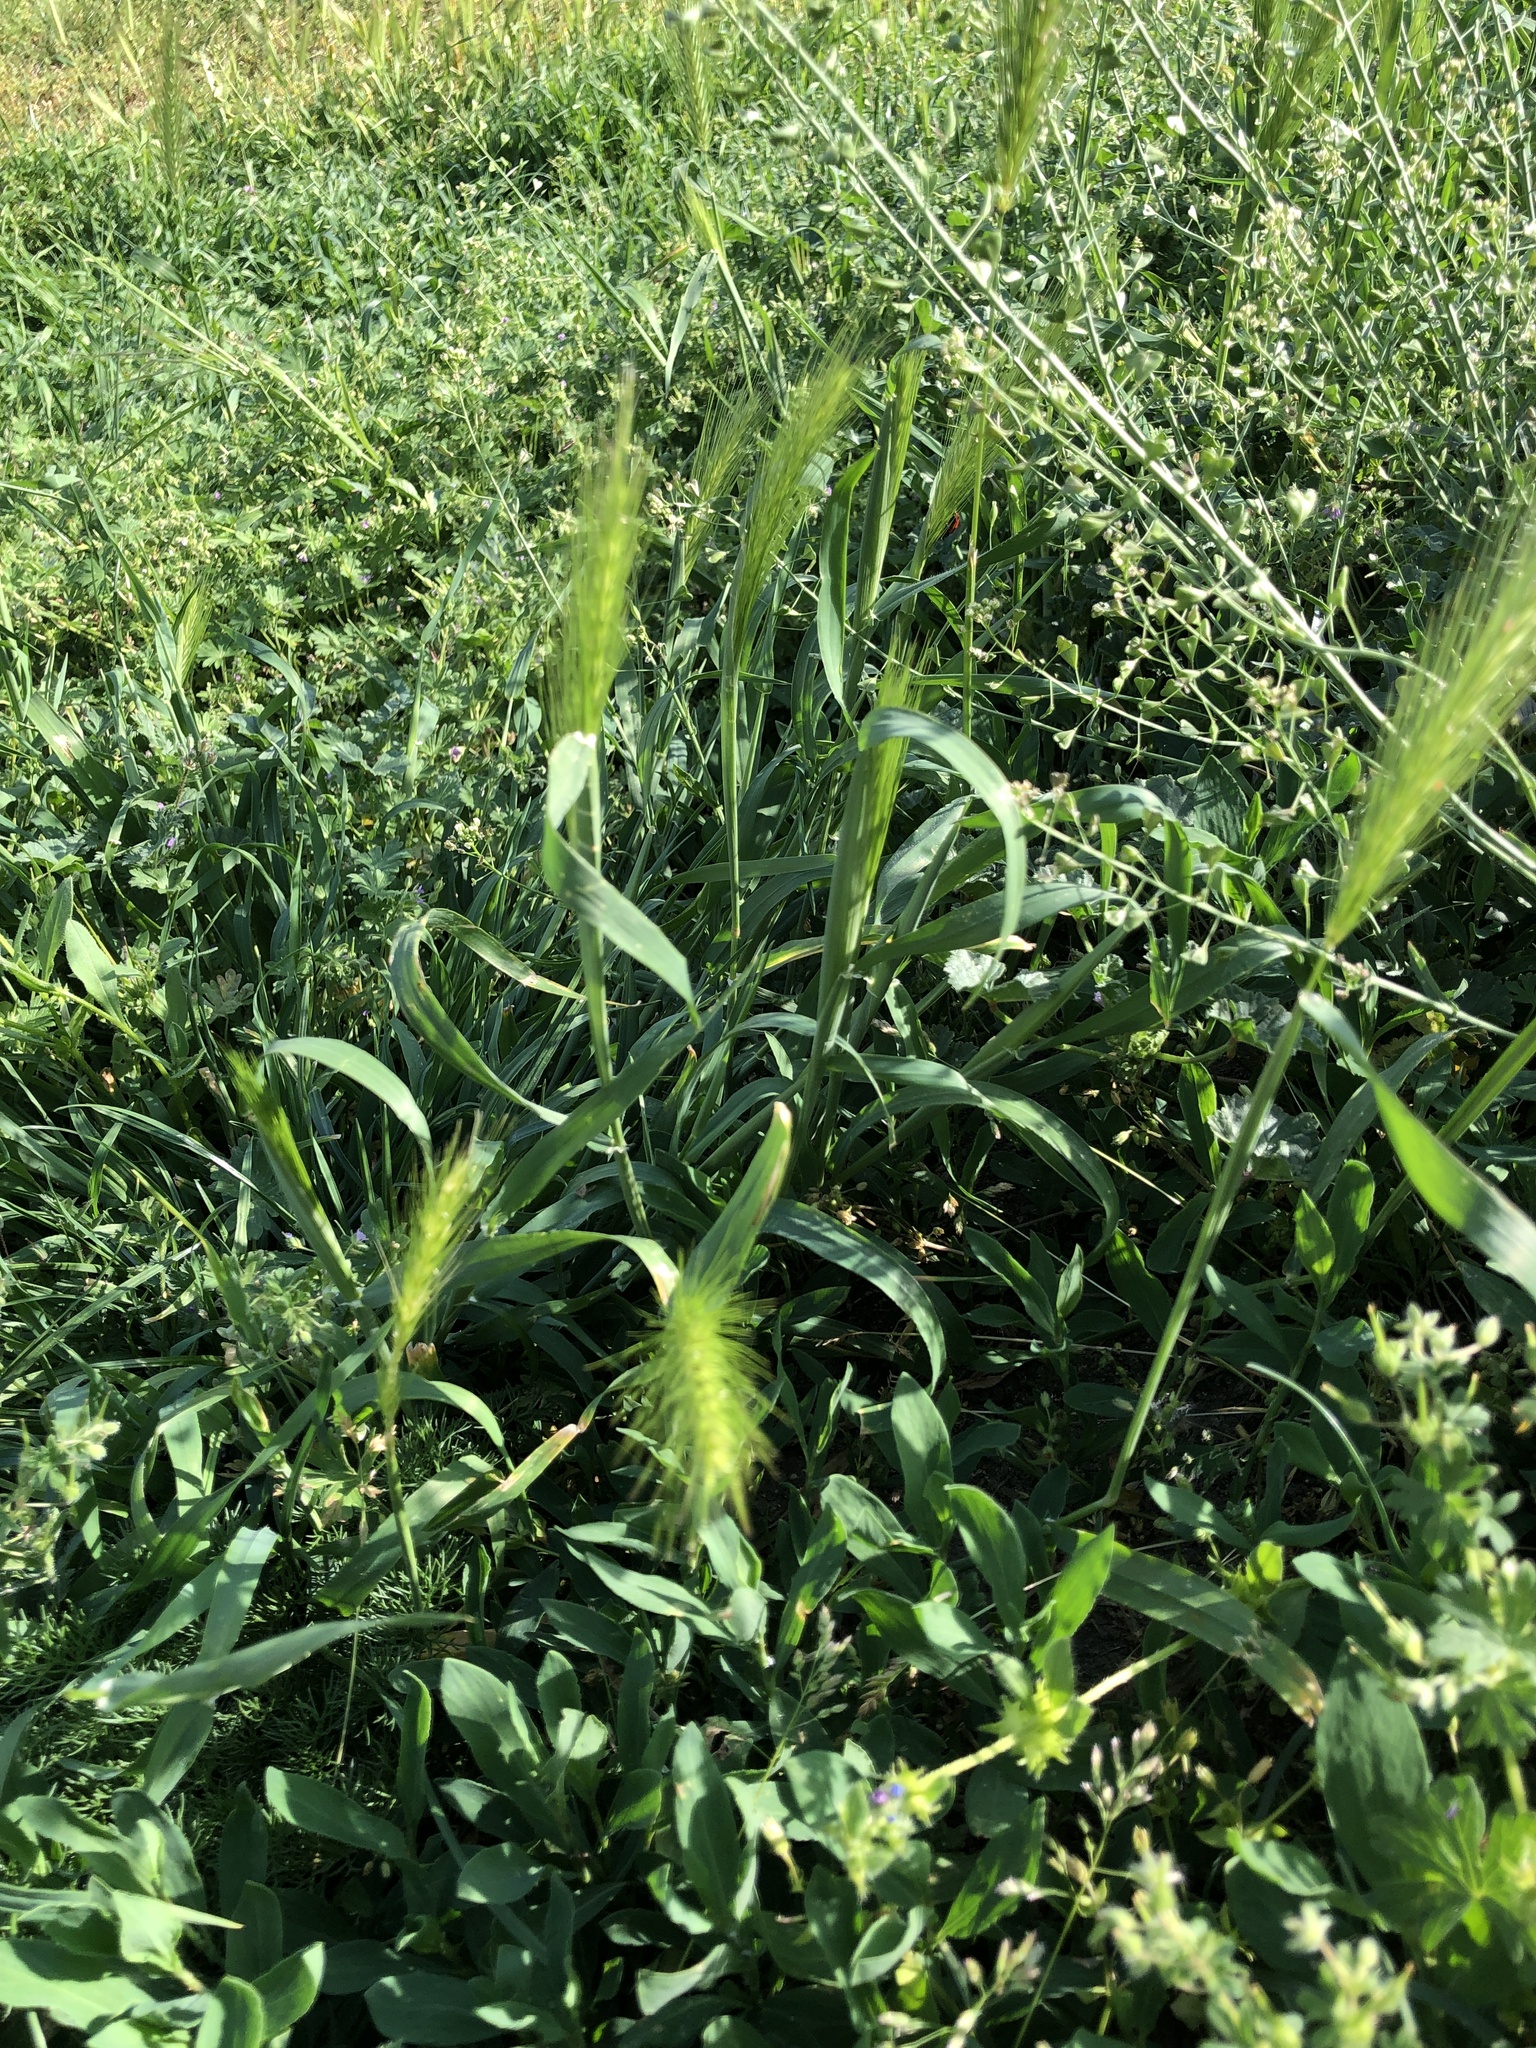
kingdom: Plantae
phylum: Tracheophyta
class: Liliopsida
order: Poales
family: Poaceae
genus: Hordeum
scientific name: Hordeum murinum
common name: Wall barley
